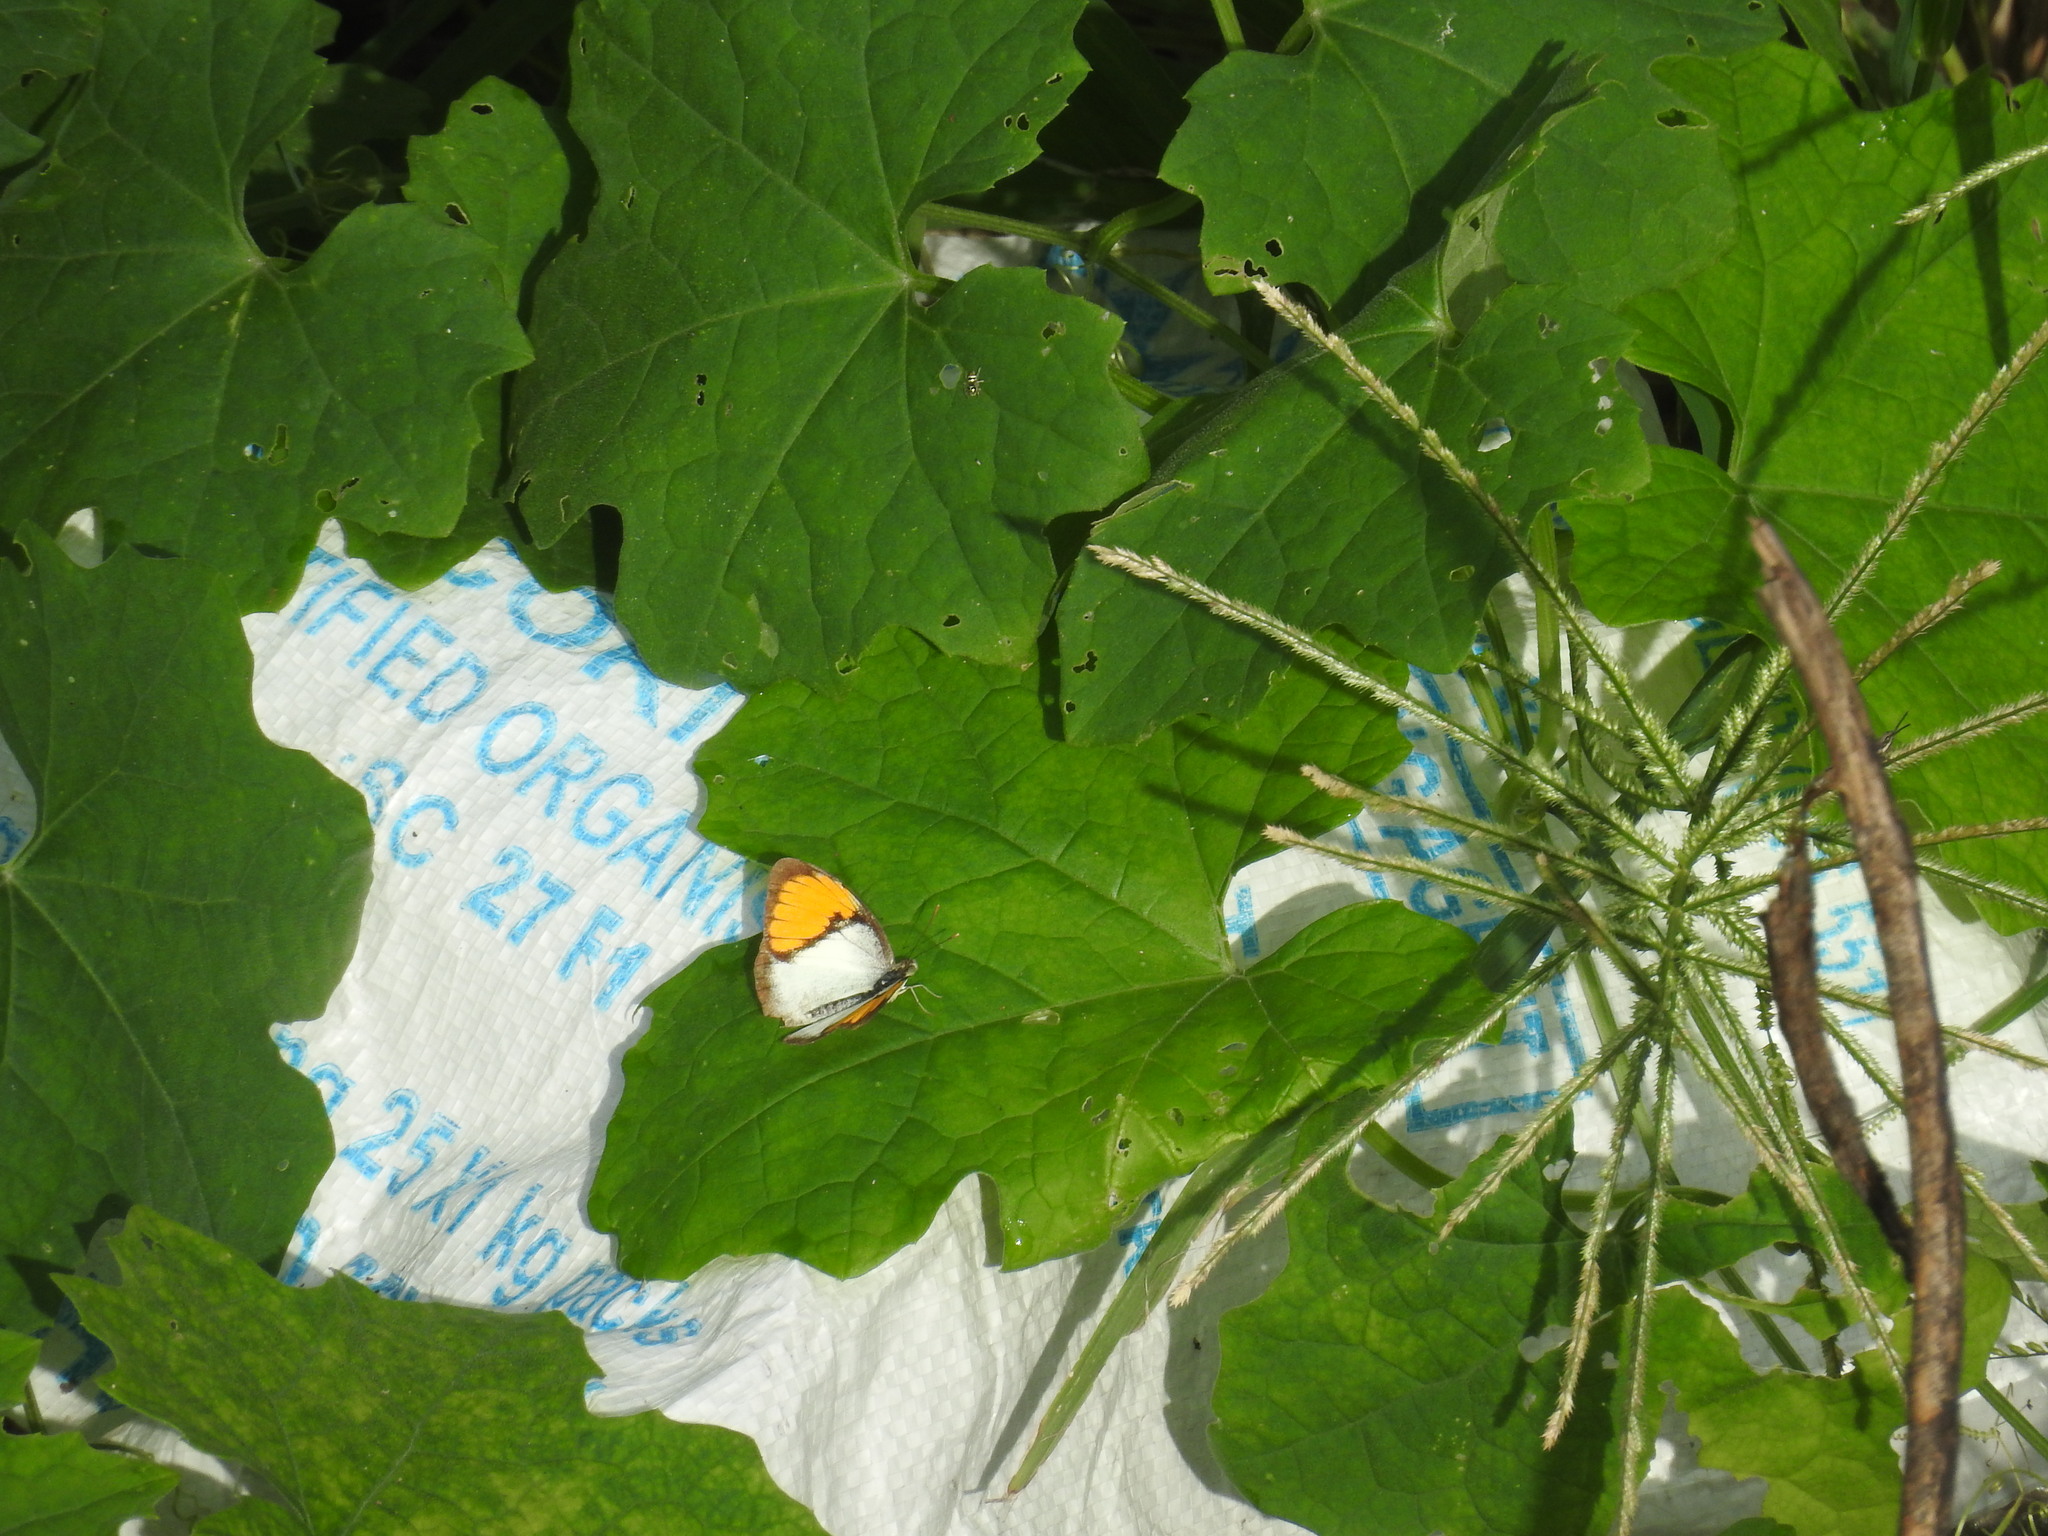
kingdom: Animalia
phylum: Arthropoda
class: Insecta
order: Lepidoptera
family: Pieridae
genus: Ixias
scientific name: Ixias marianne
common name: White orange tip
